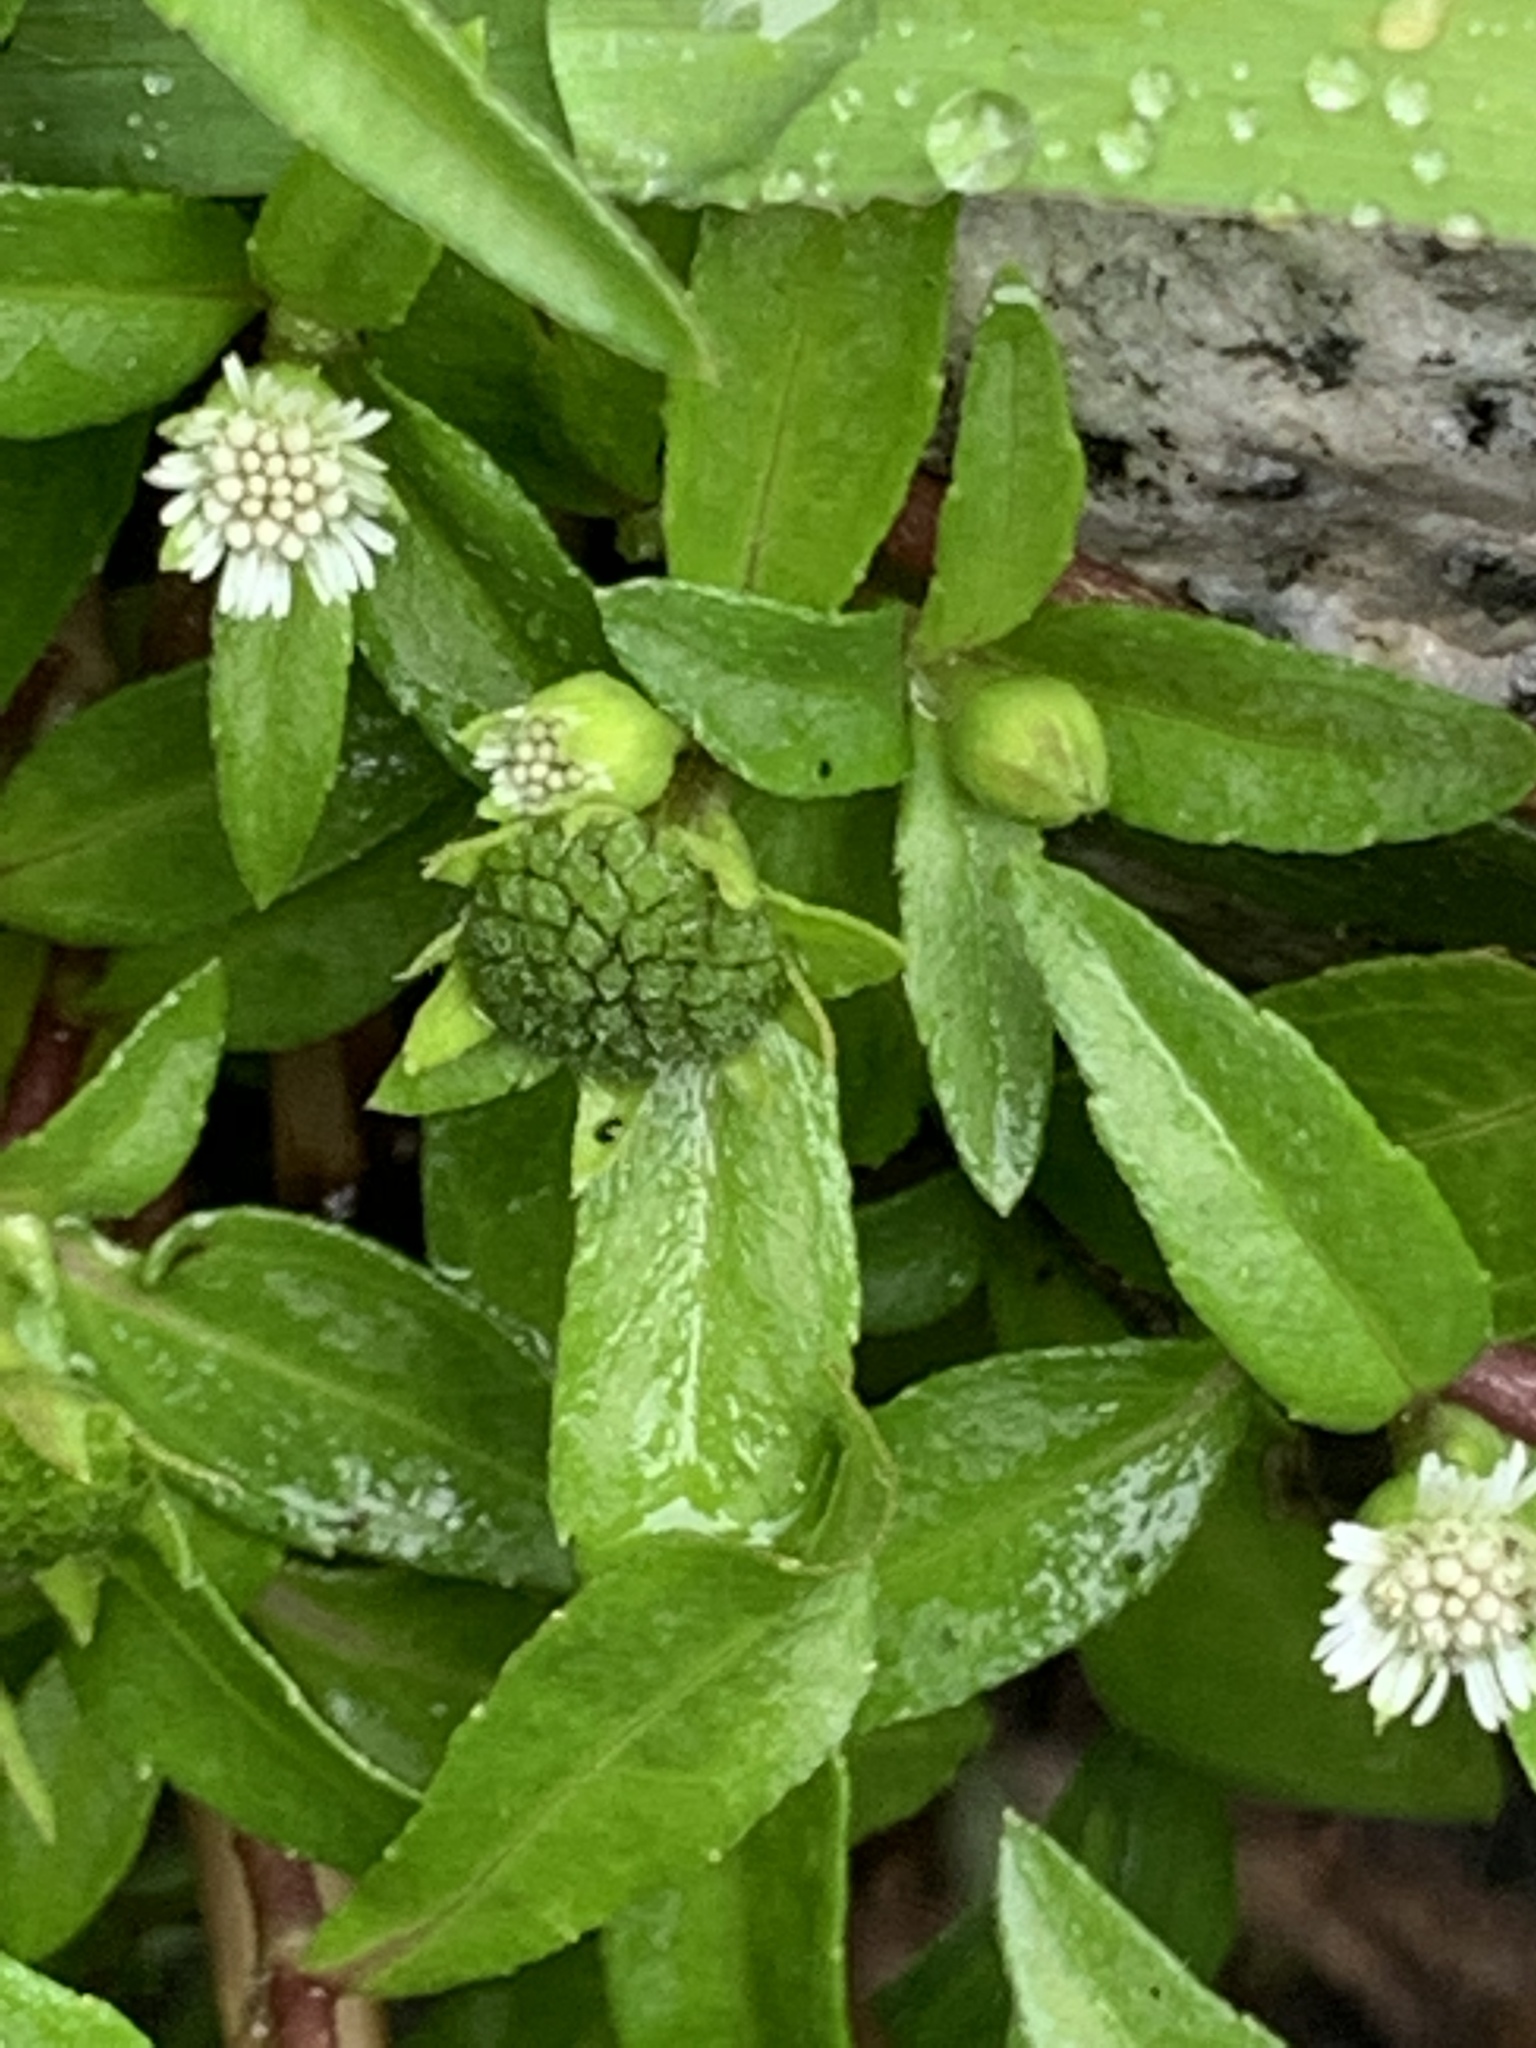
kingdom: Plantae
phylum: Tracheophyta
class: Magnoliopsida
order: Asterales
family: Asteraceae
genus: Eclipta
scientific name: Eclipta prostrata
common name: False daisy
